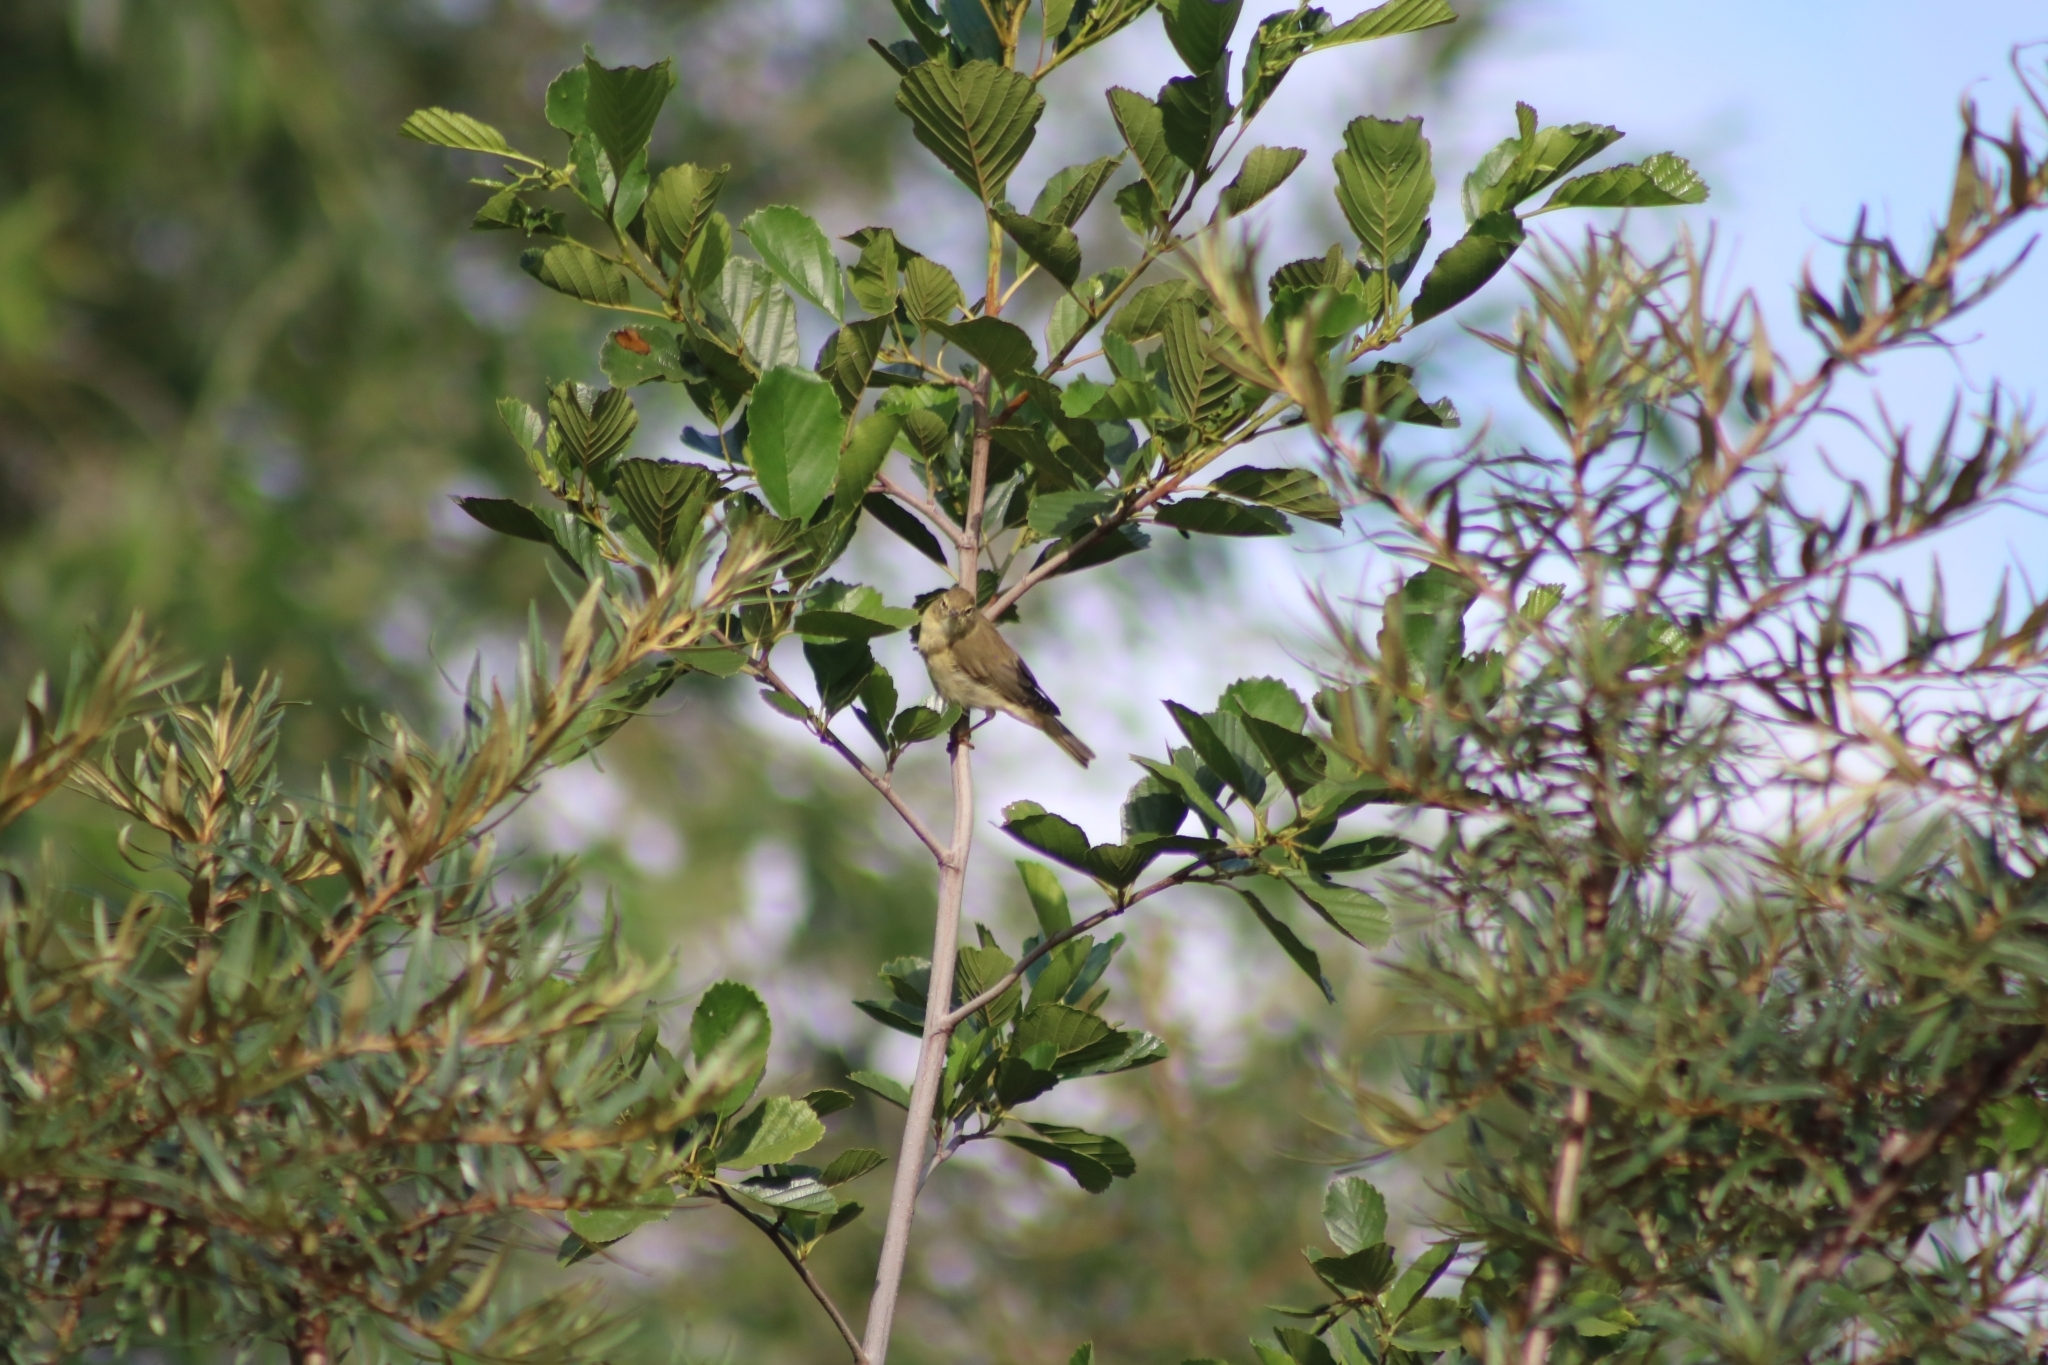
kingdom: Animalia
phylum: Chordata
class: Aves
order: Passeriformes
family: Phylloscopidae
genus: Phylloscopus
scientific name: Phylloscopus trochilus
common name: Willow warbler
